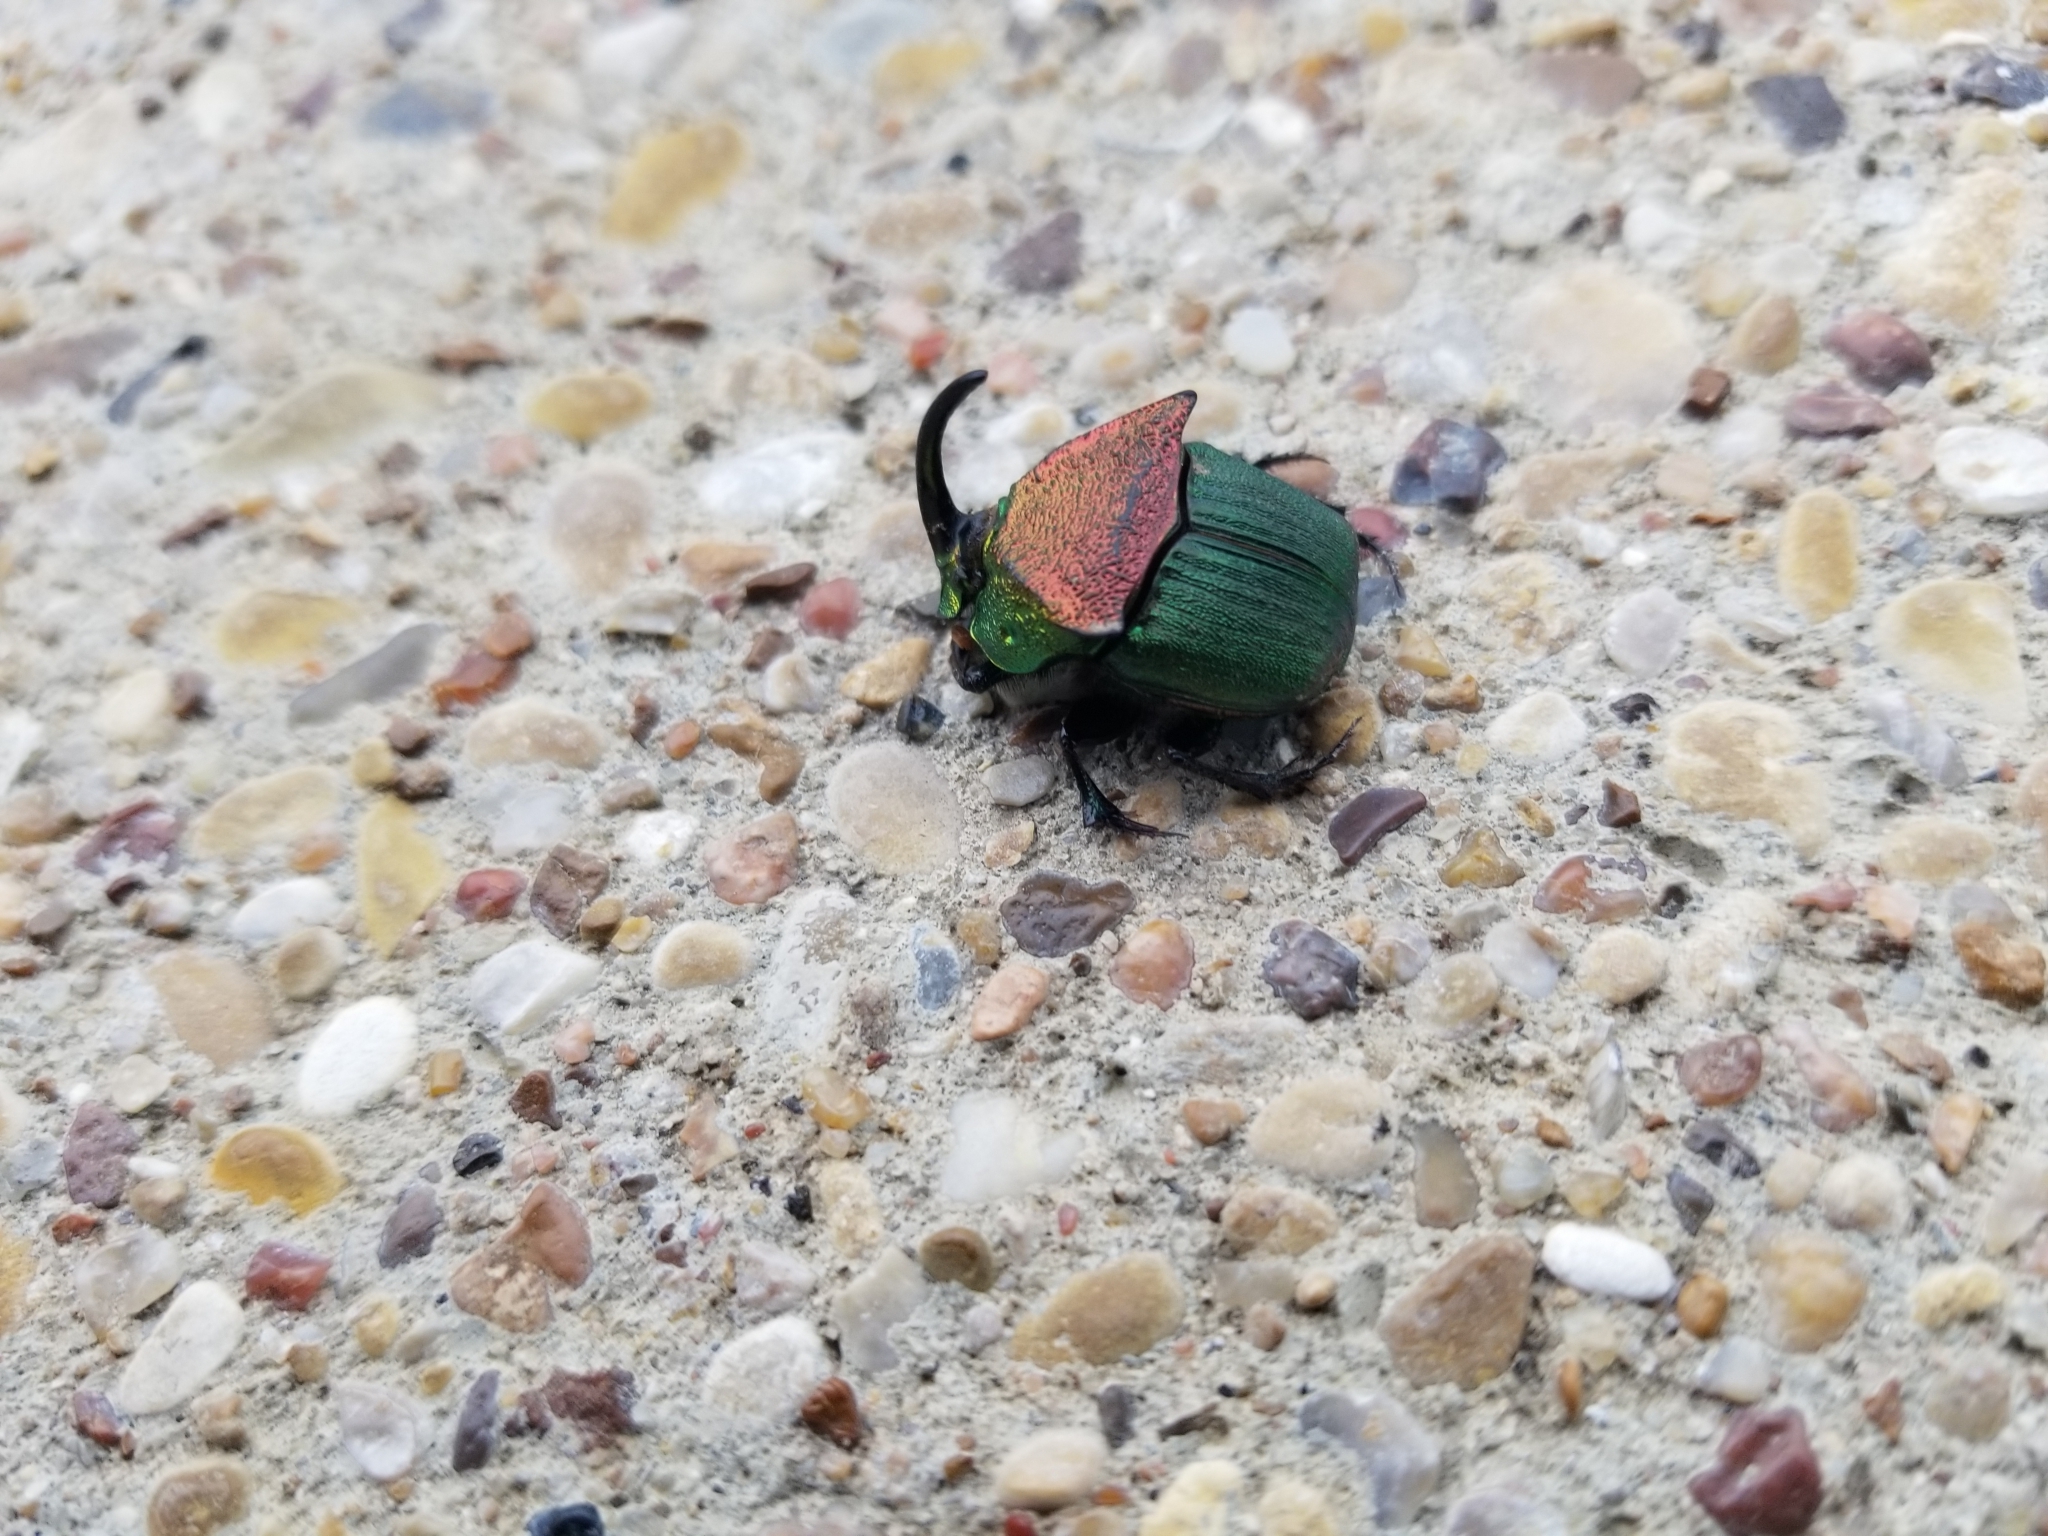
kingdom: Animalia
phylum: Arthropoda
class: Insecta
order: Coleoptera
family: Scarabaeidae
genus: Phanaeus
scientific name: Phanaeus vindex
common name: Rainbow scarab
